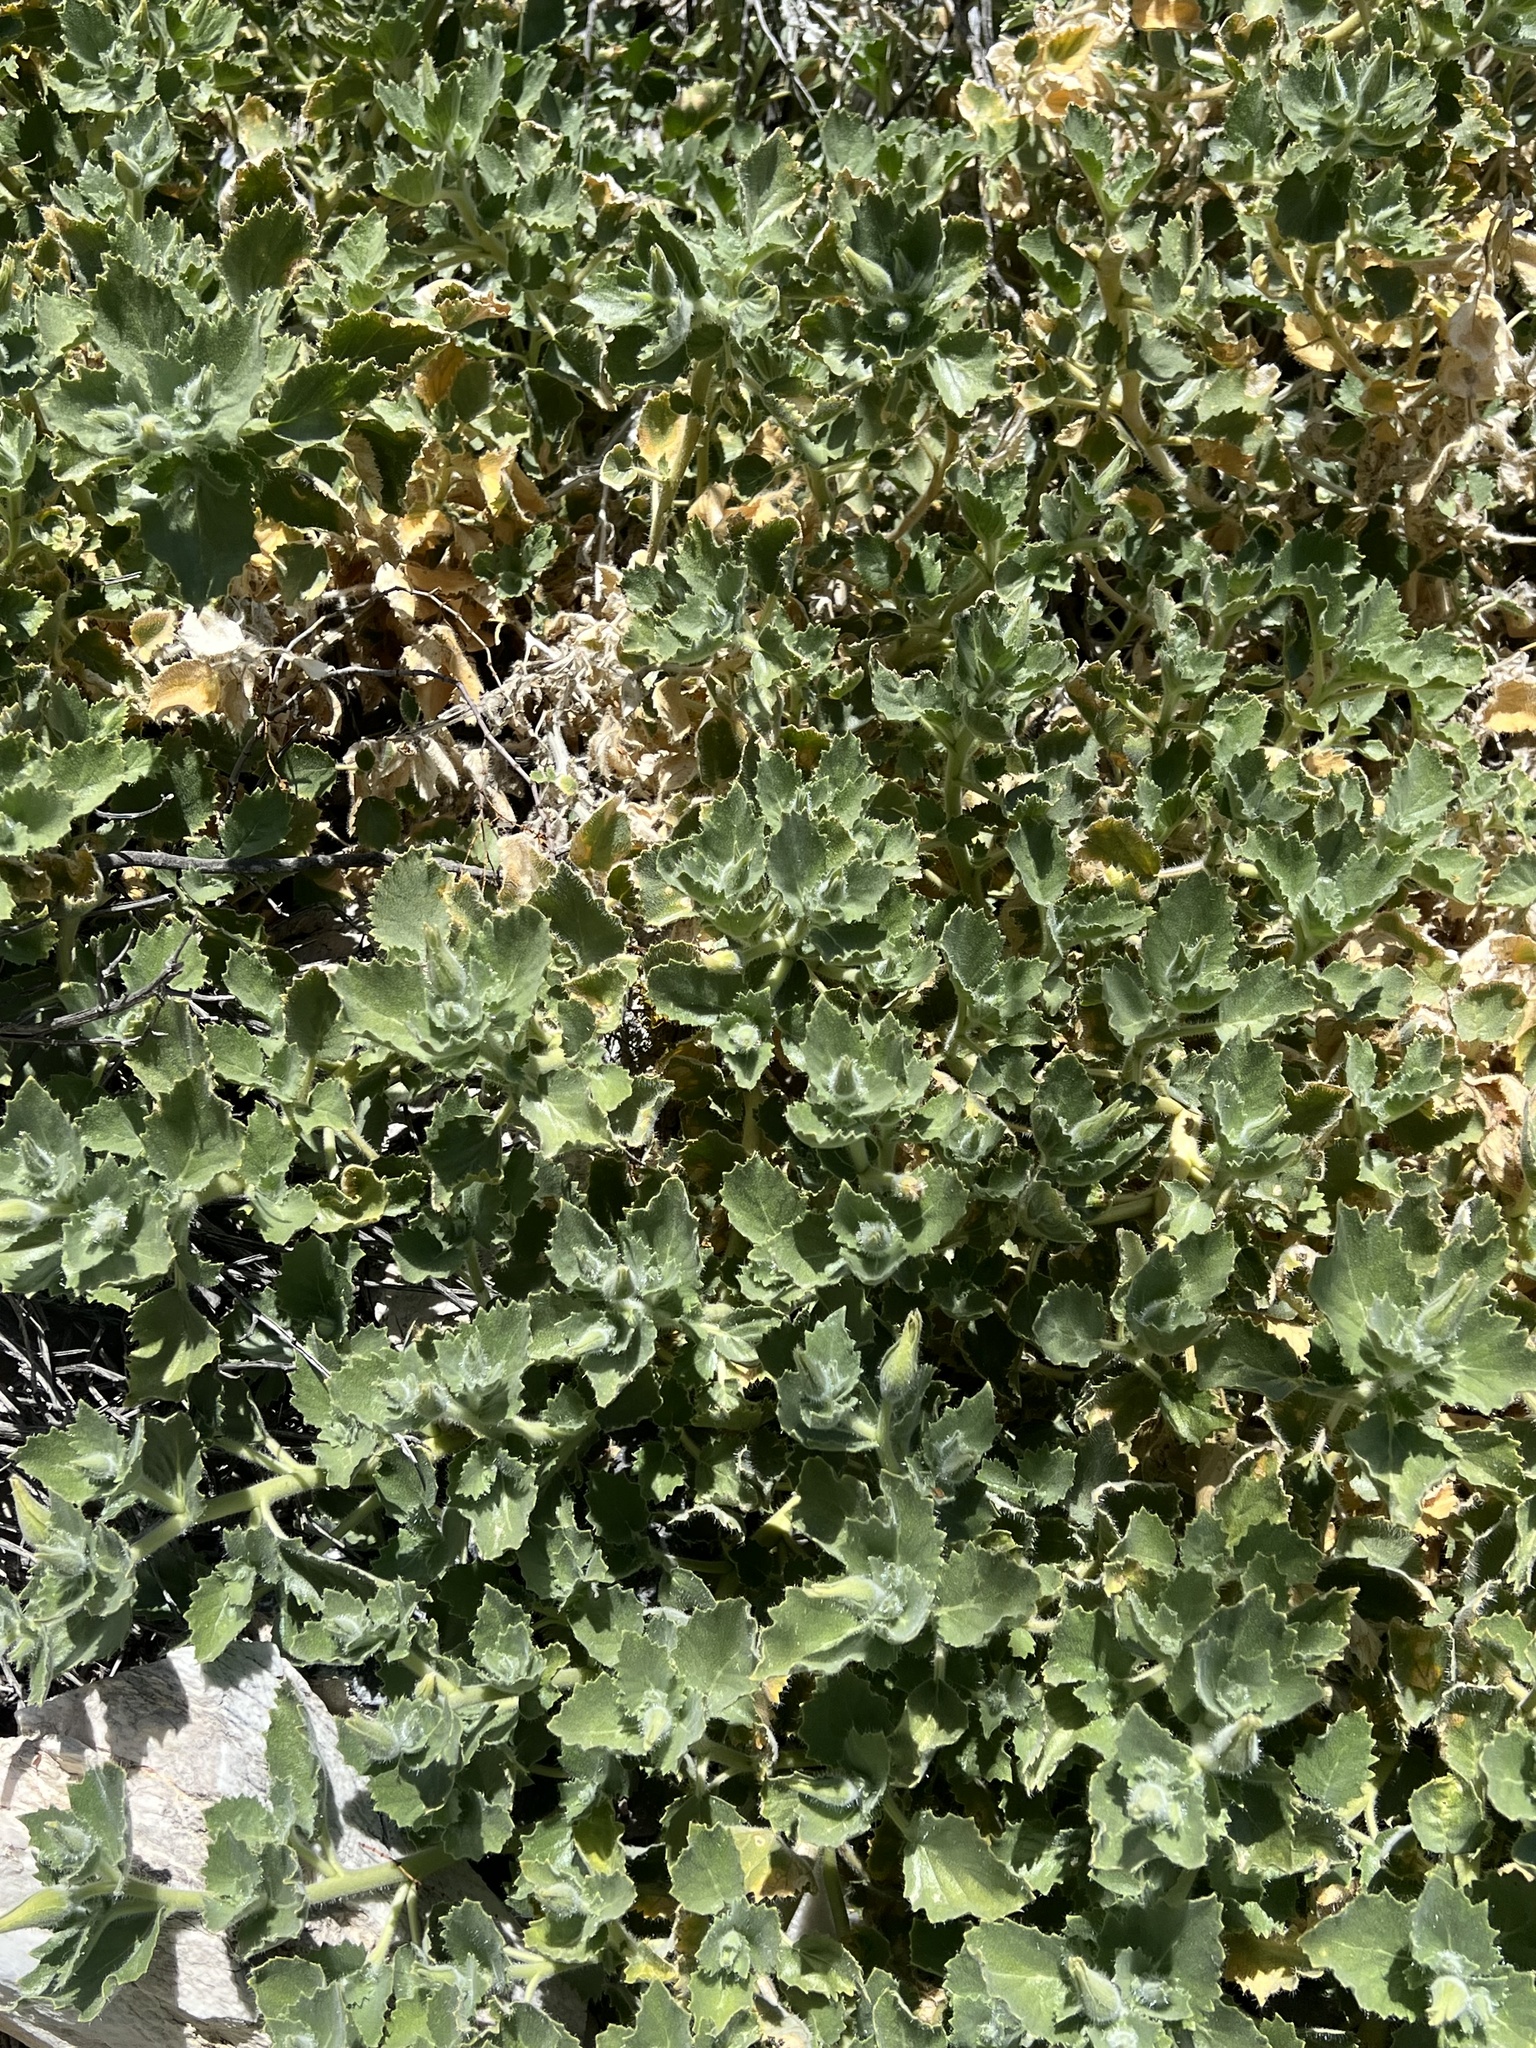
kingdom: Plantae
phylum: Tracheophyta
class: Magnoliopsida
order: Cornales
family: Loasaceae
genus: Eucnide
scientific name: Eucnide urens
